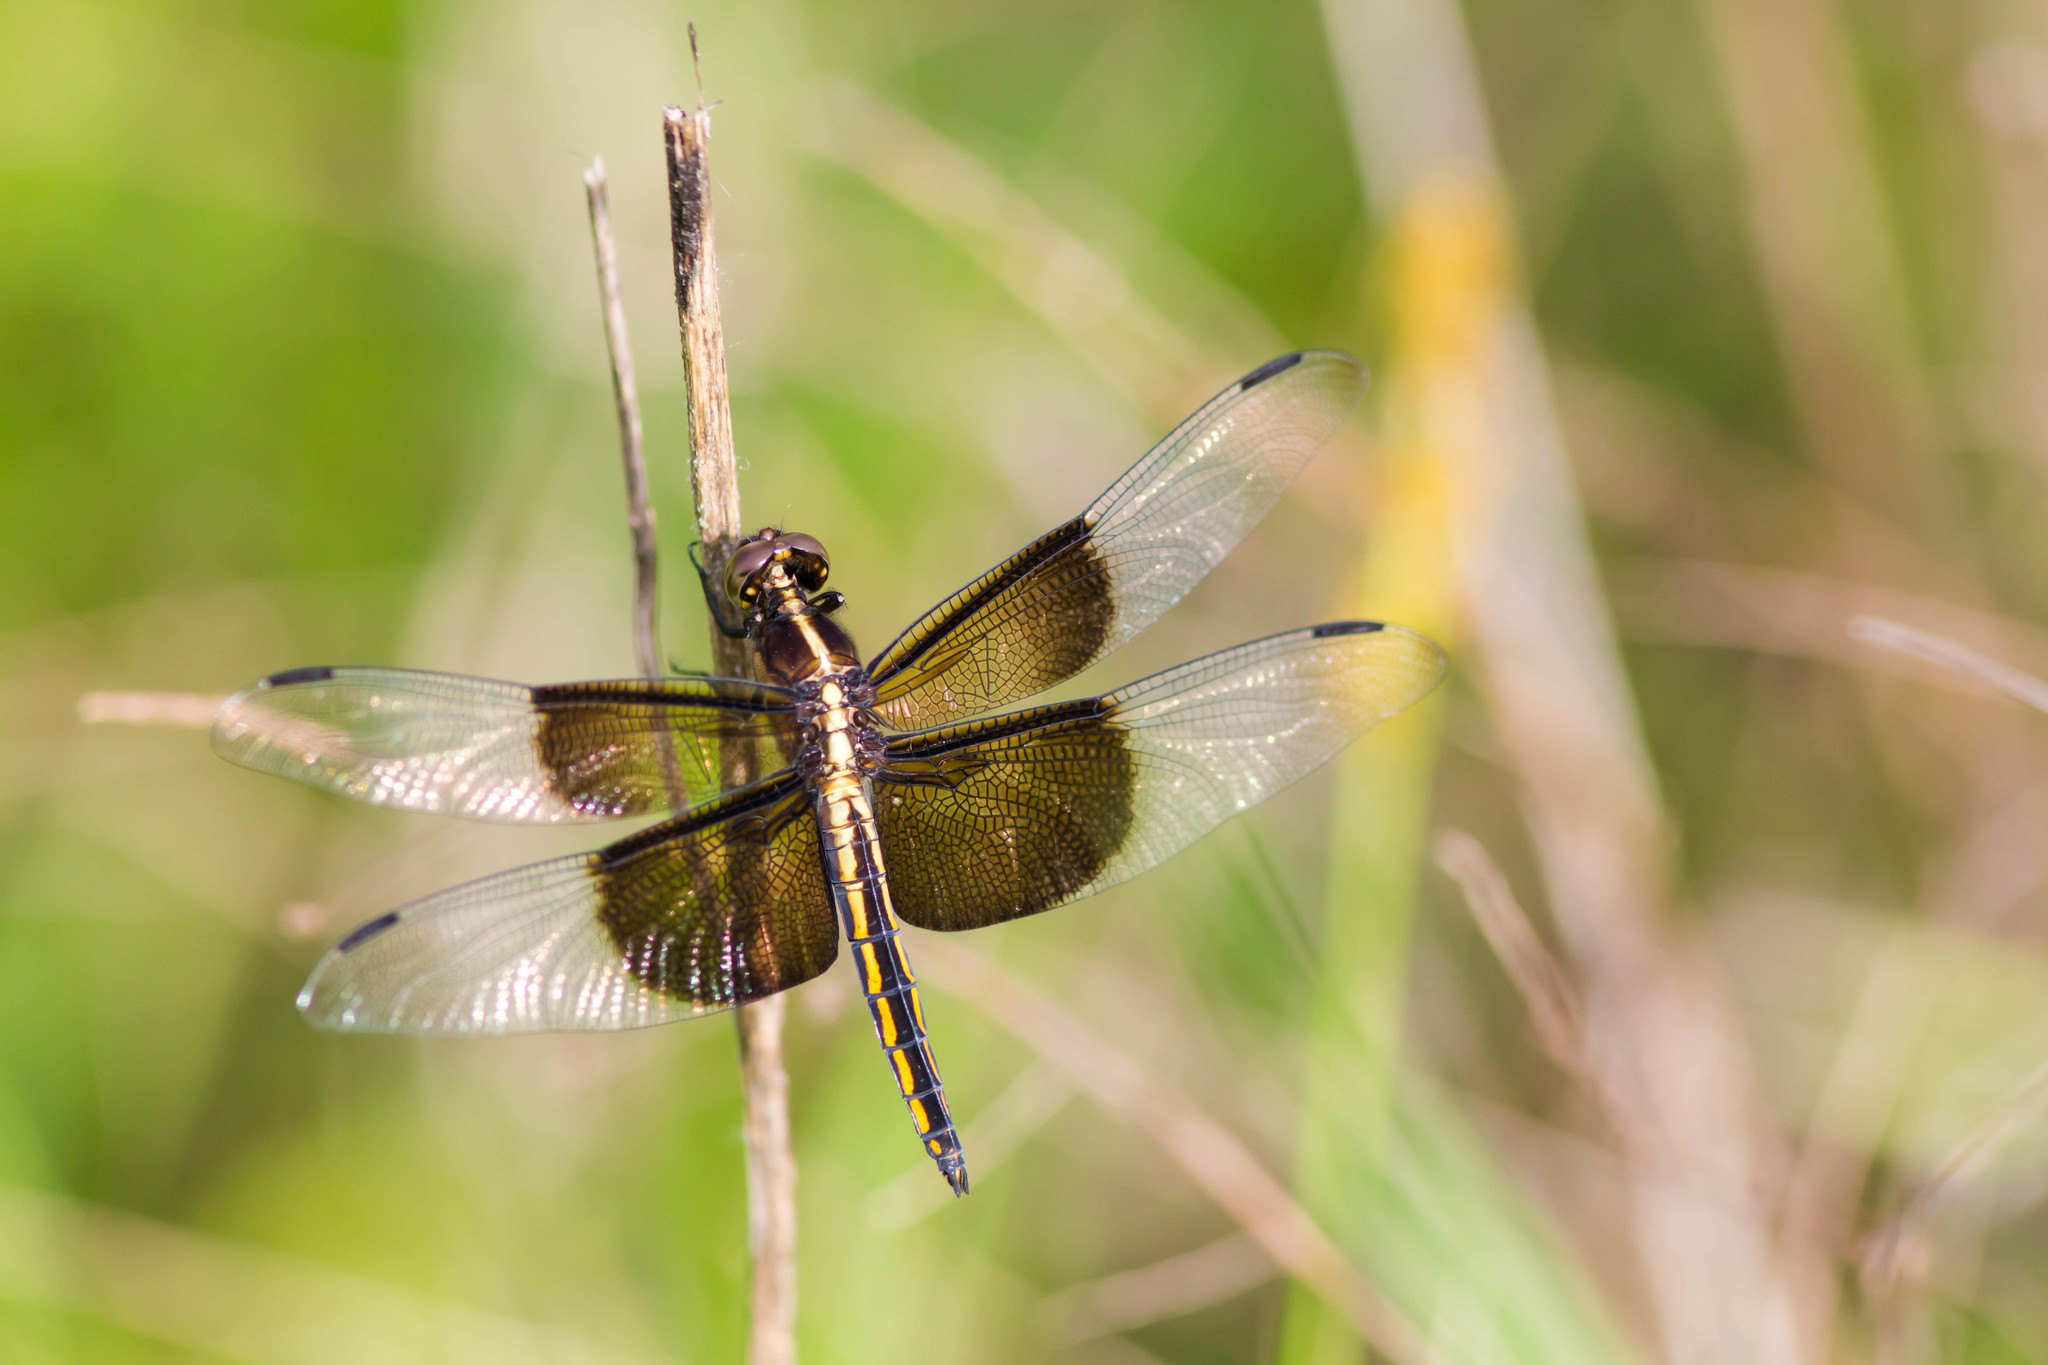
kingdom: Animalia
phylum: Arthropoda
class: Insecta
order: Odonata
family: Libellulidae
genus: Libellula
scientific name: Libellula luctuosa
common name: Widow skimmer
